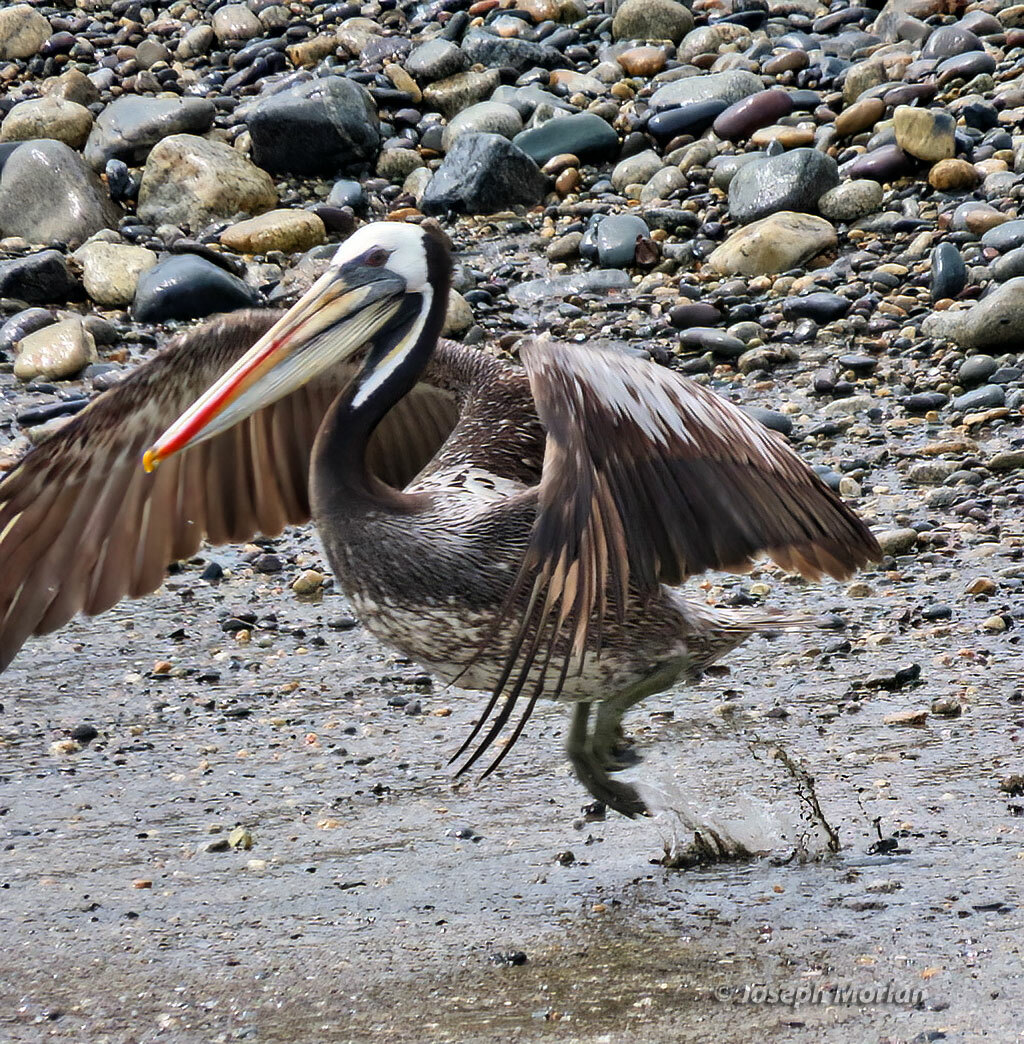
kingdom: Animalia
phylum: Chordata
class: Aves
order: Pelecaniformes
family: Pelecanidae
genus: Pelecanus
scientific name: Pelecanus thagus
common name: Peruvian pelican
